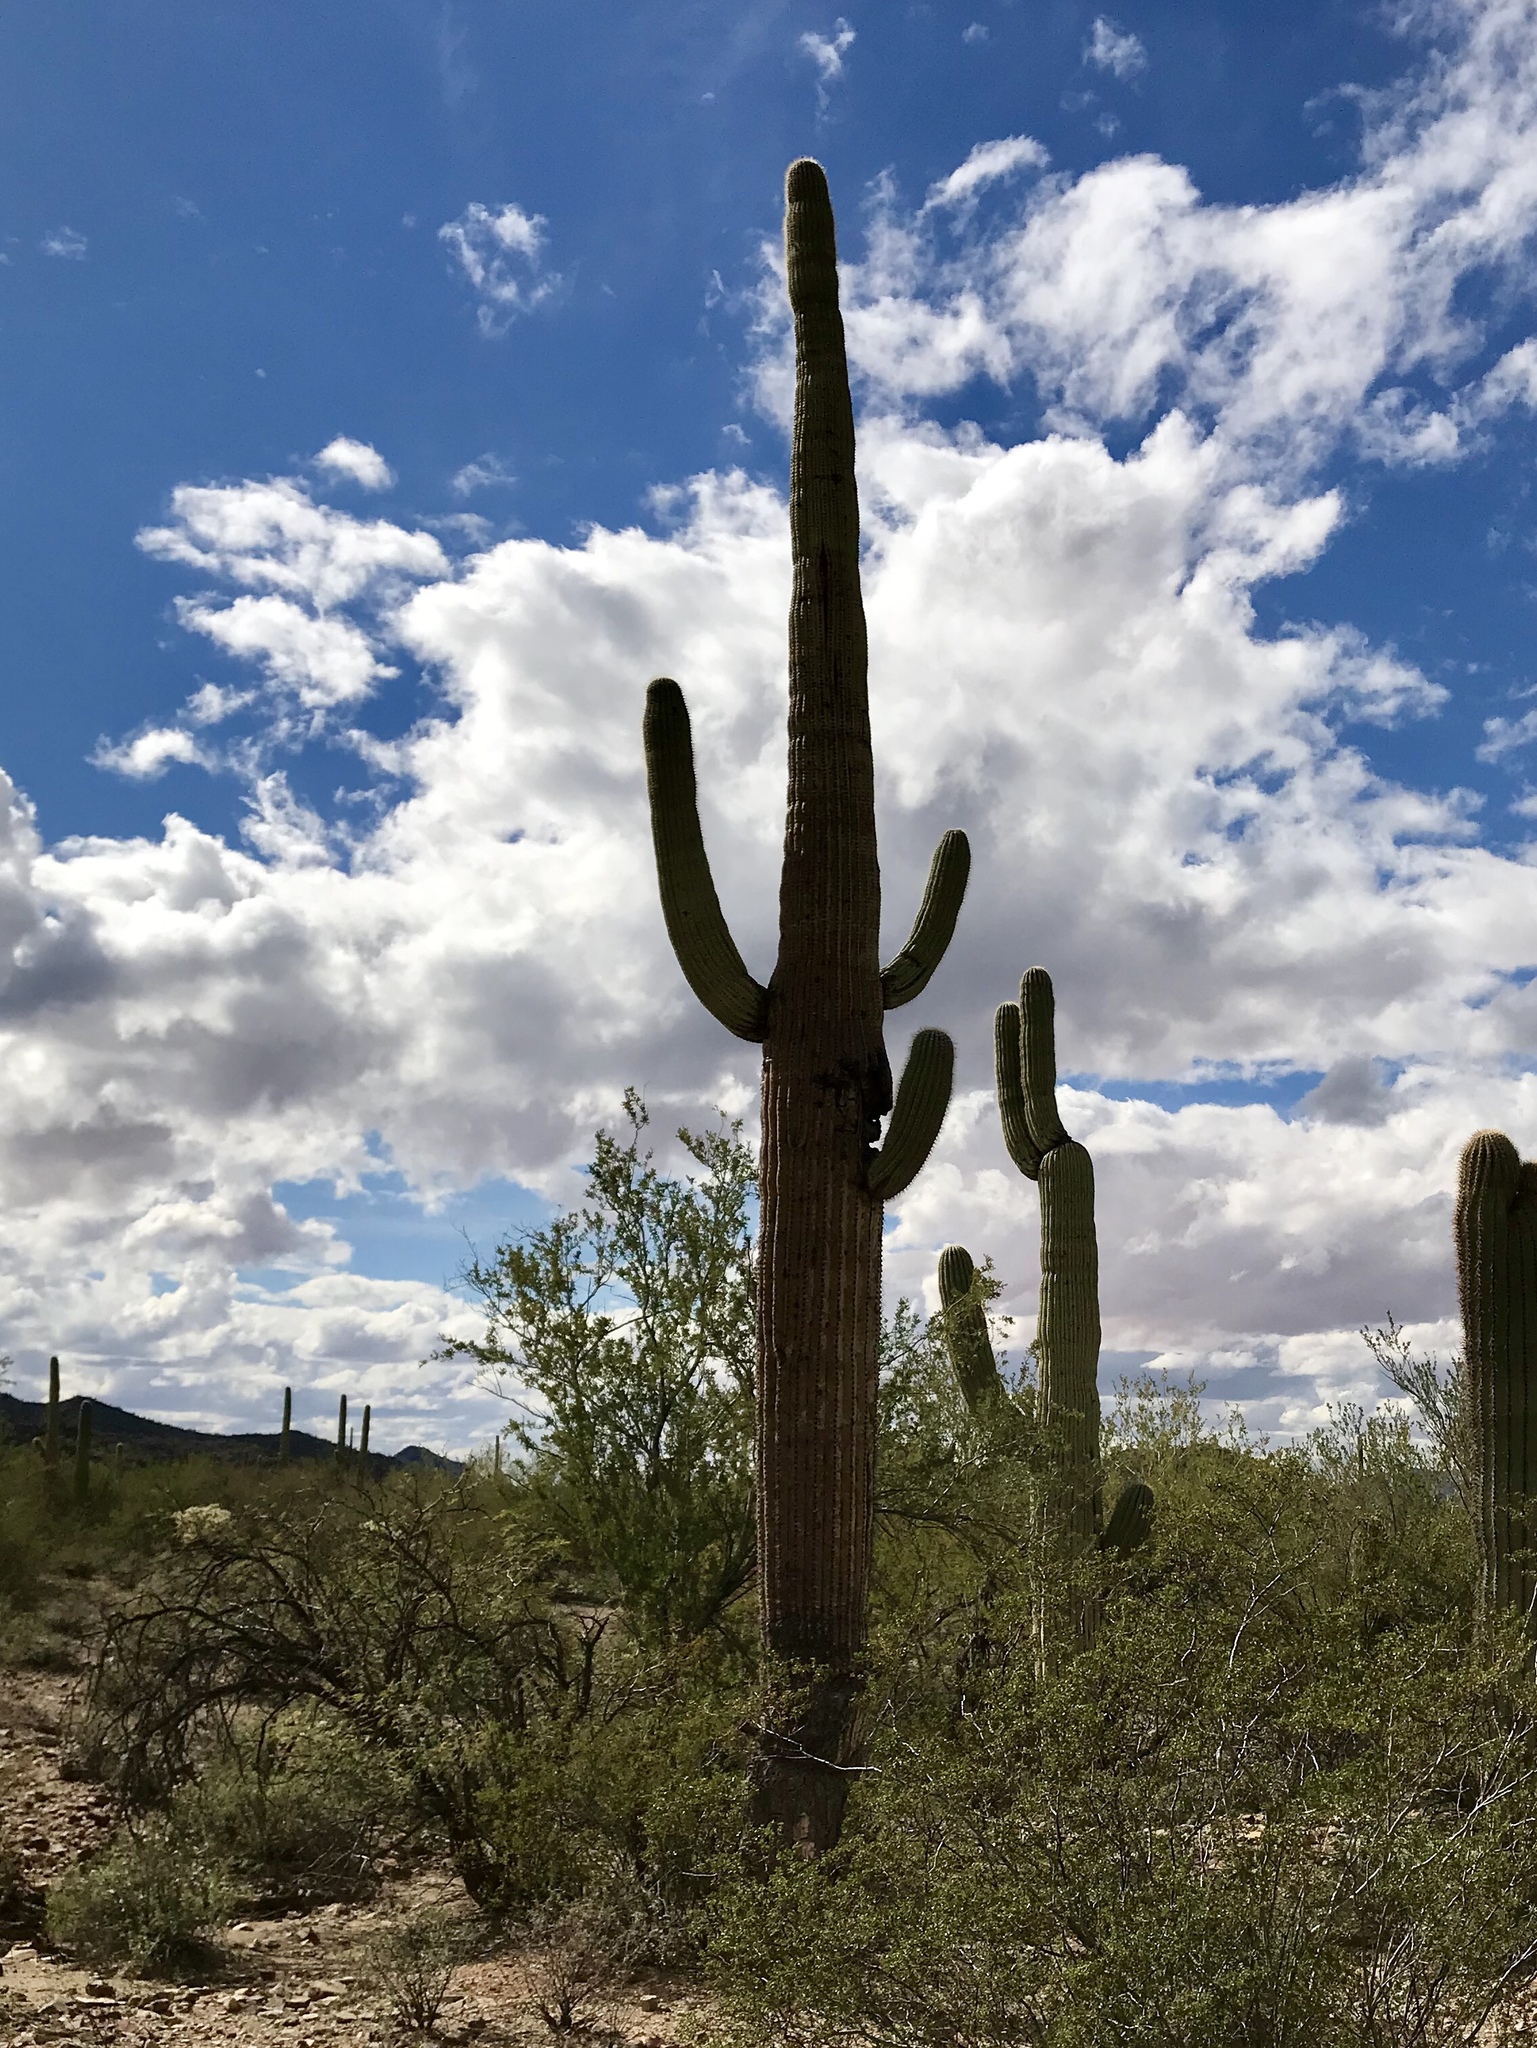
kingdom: Plantae
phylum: Tracheophyta
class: Magnoliopsida
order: Caryophyllales
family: Cactaceae
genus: Carnegiea
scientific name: Carnegiea gigantea
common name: Saguaro
